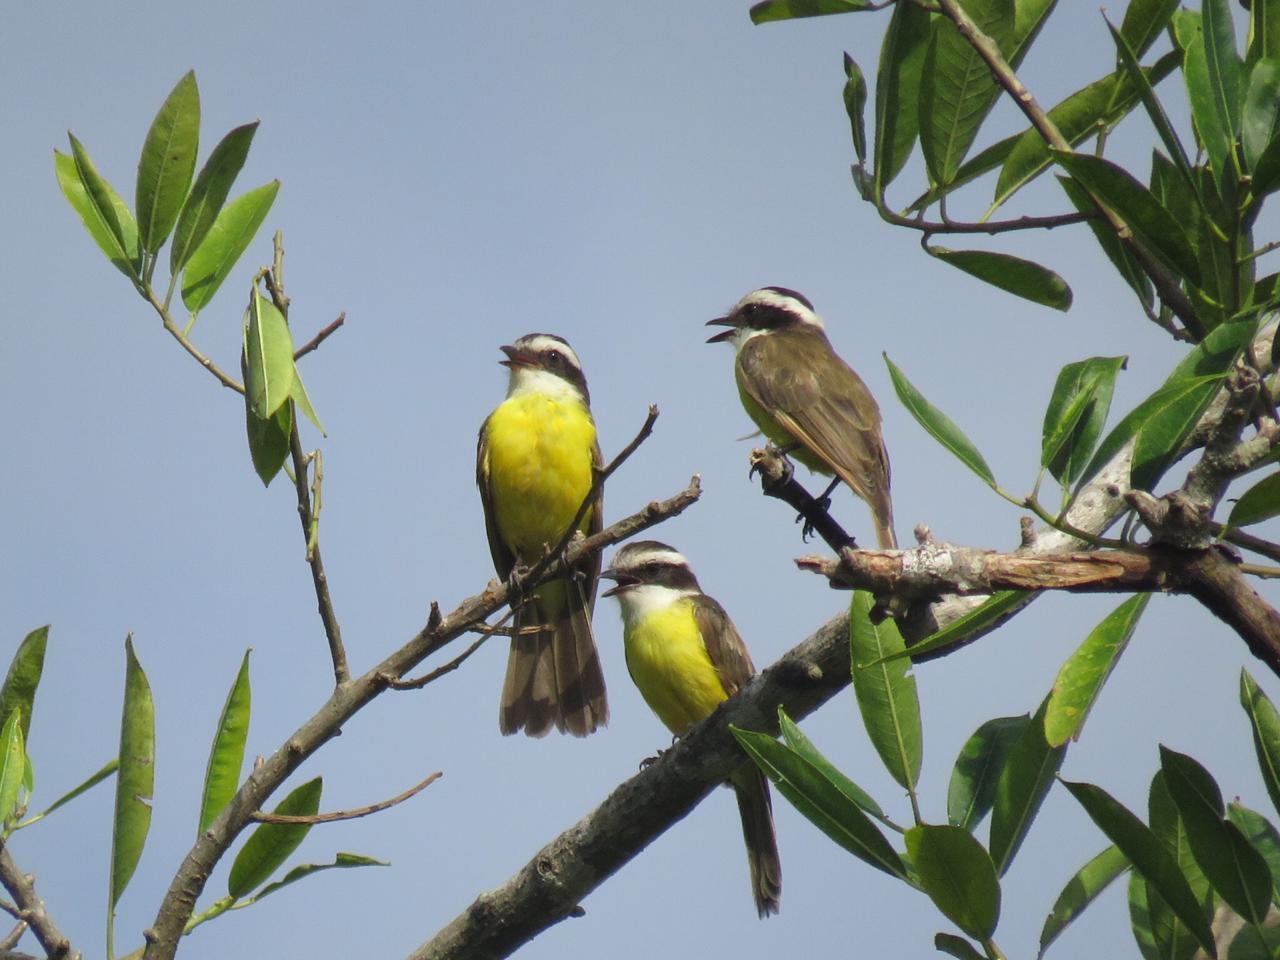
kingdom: Animalia
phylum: Chordata
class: Aves
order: Passeriformes
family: Tyrannidae
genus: Phelpsia
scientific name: Phelpsia inornata
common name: White-bearded flycatcher
